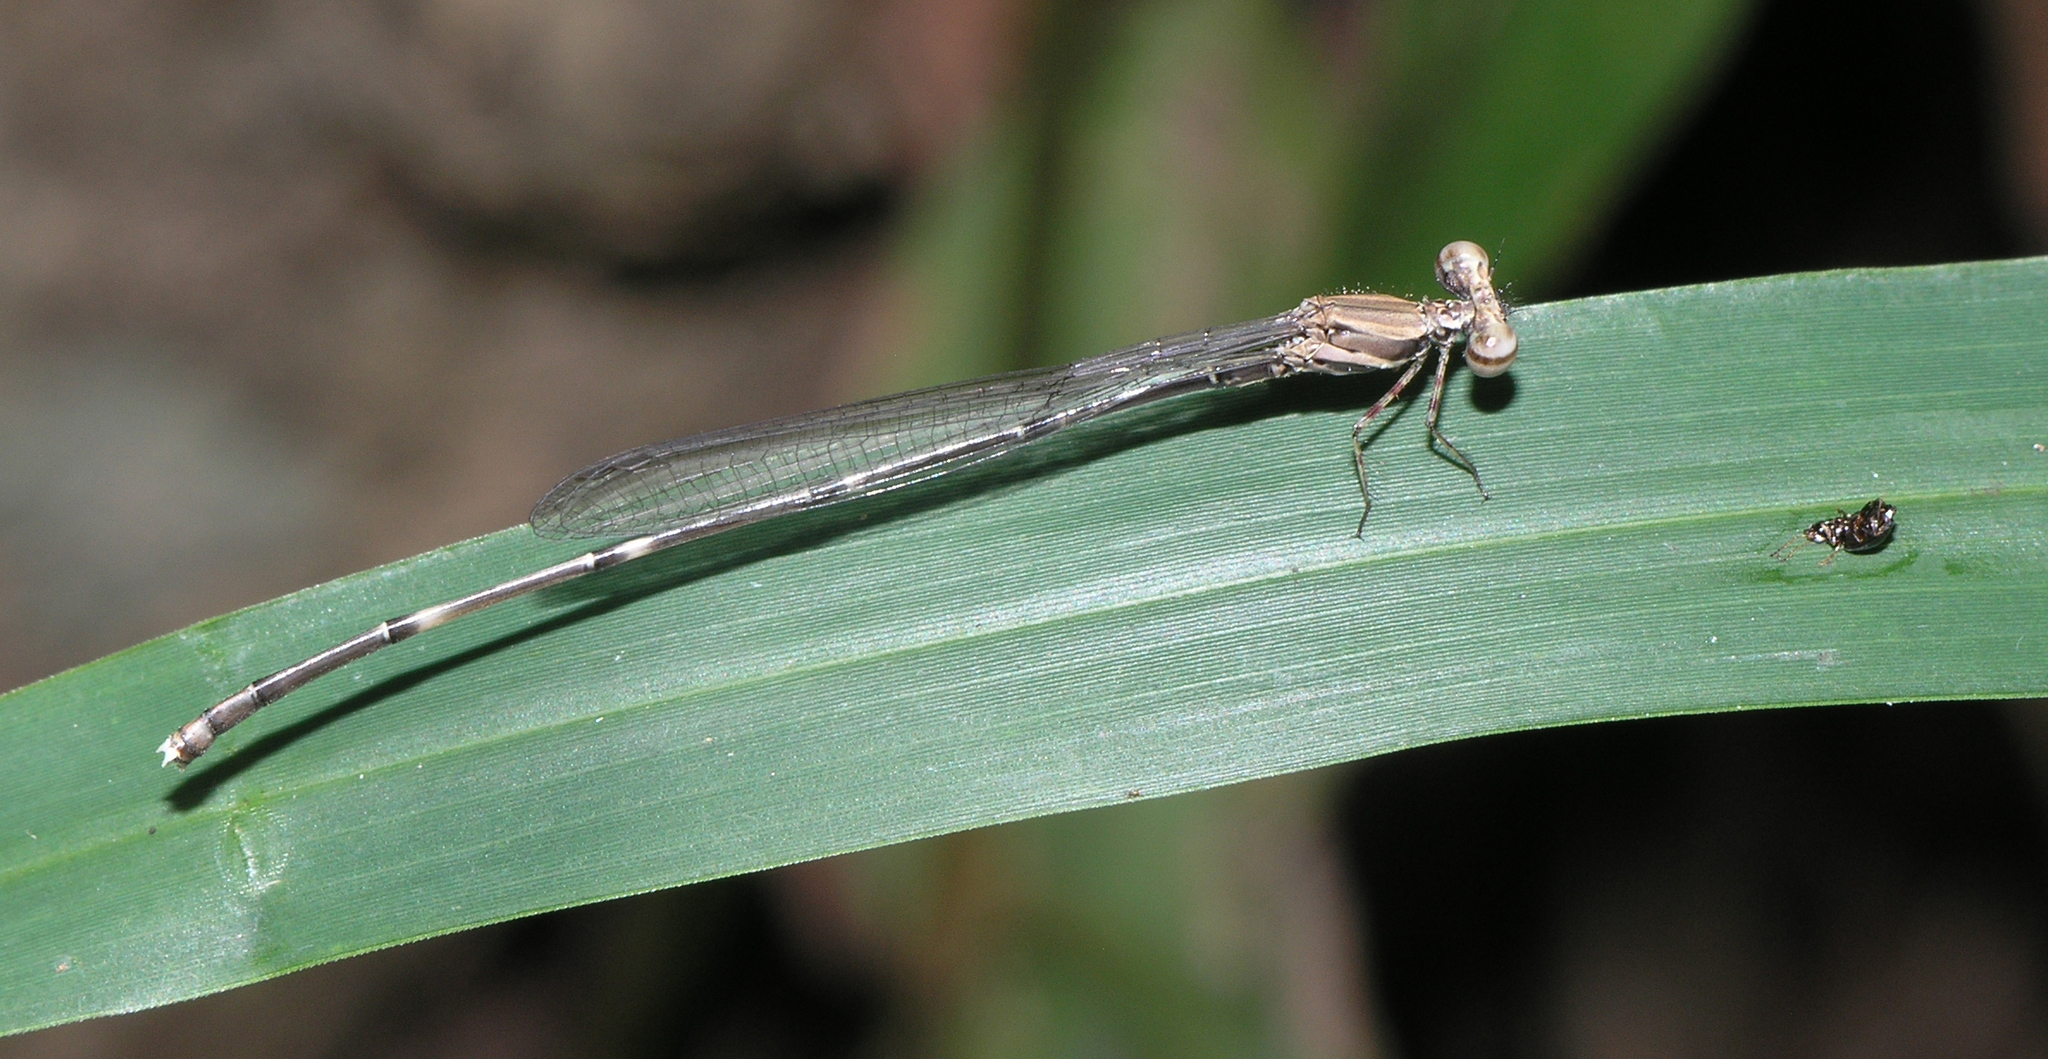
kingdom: Animalia
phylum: Arthropoda
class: Insecta
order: Odonata
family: Platycnemididae
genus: Prodasineura
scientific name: Prodasineura coerulescens
